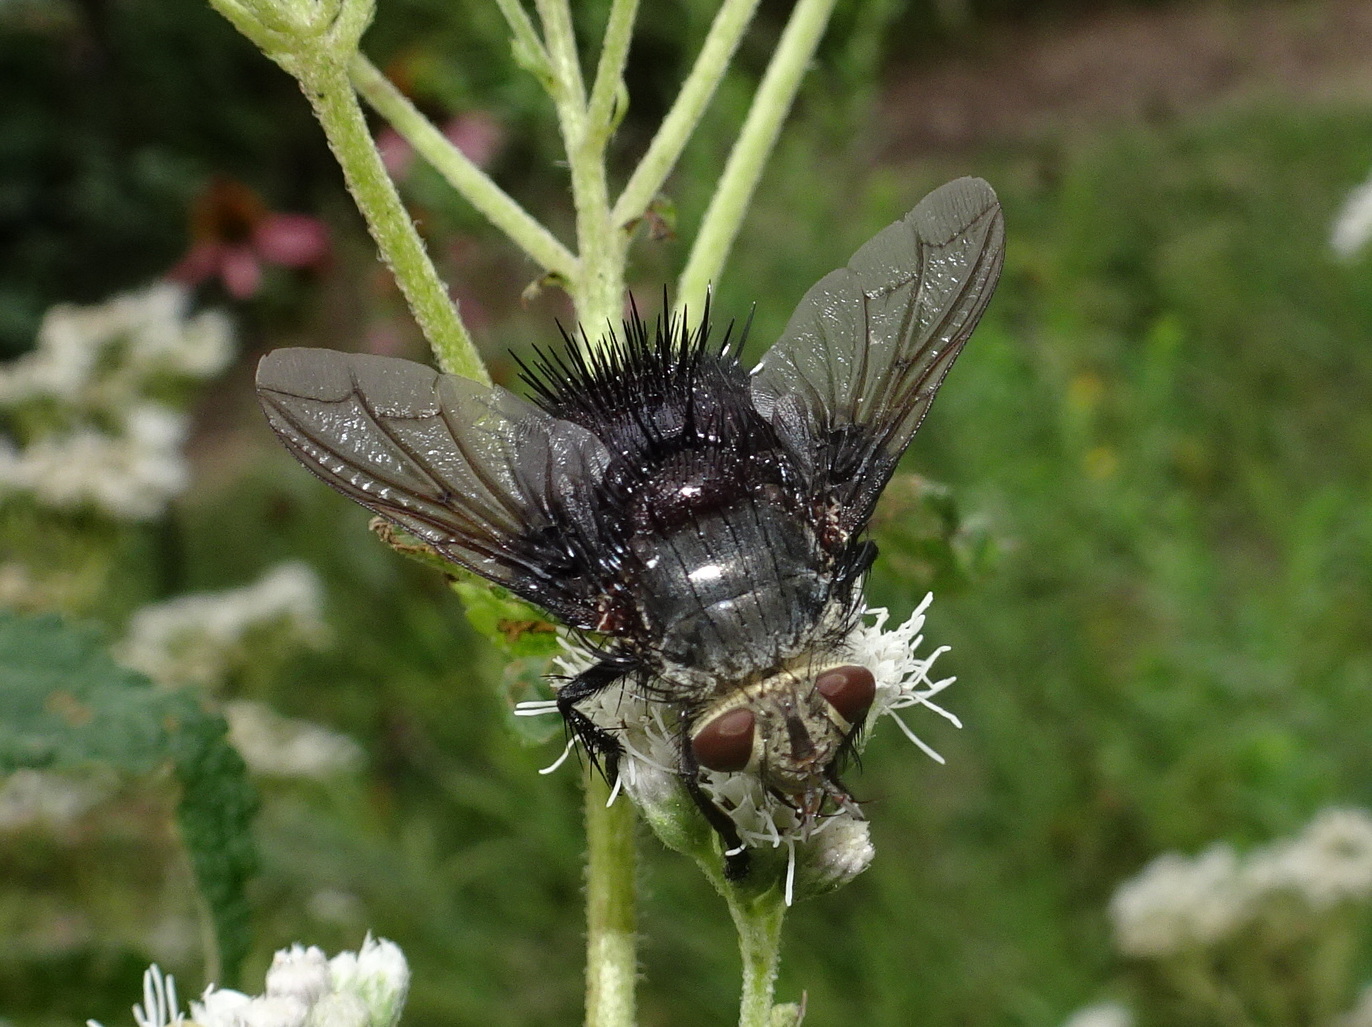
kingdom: Animalia
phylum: Arthropoda
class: Insecta
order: Diptera
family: Tachinidae
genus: Juriniopsis
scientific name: Juriniopsis adusta
